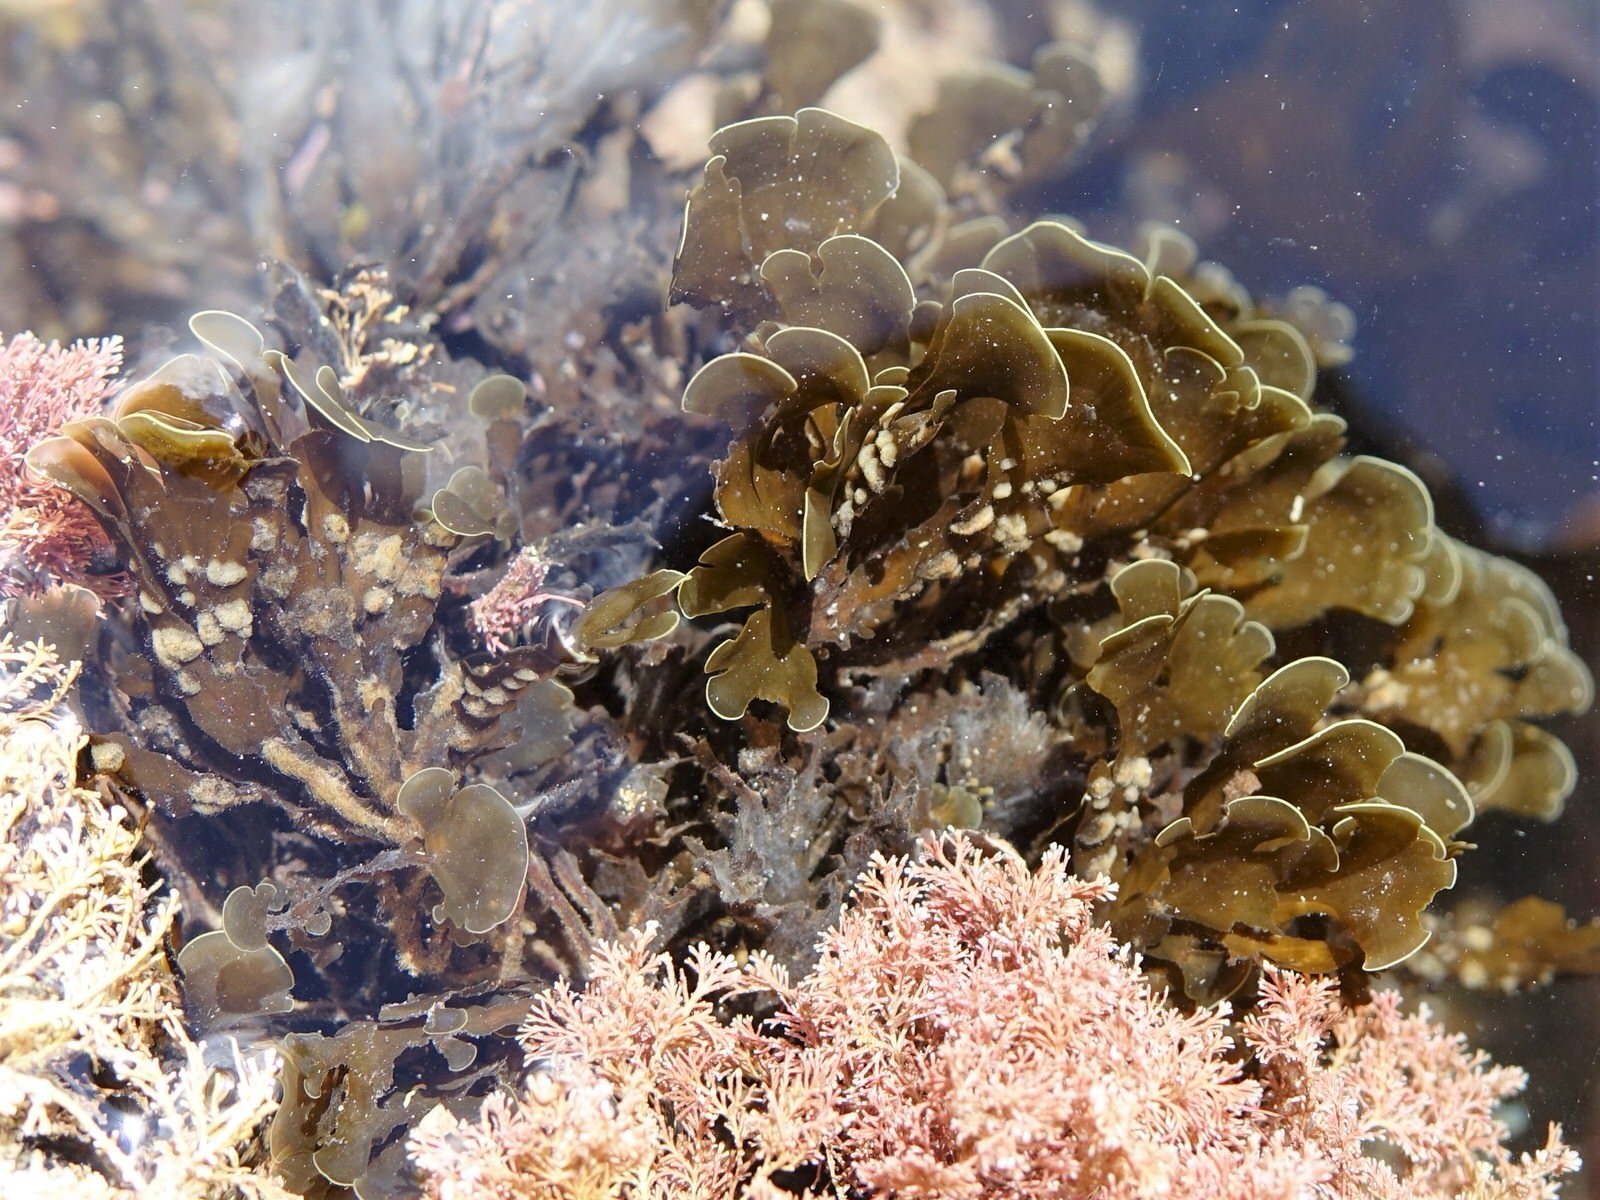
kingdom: Chromista
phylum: Ochrophyta
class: Phaeophyceae
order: Dictyotales
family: Dictyotaceae
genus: Zonaria
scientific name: Zonaria aureomarginata
